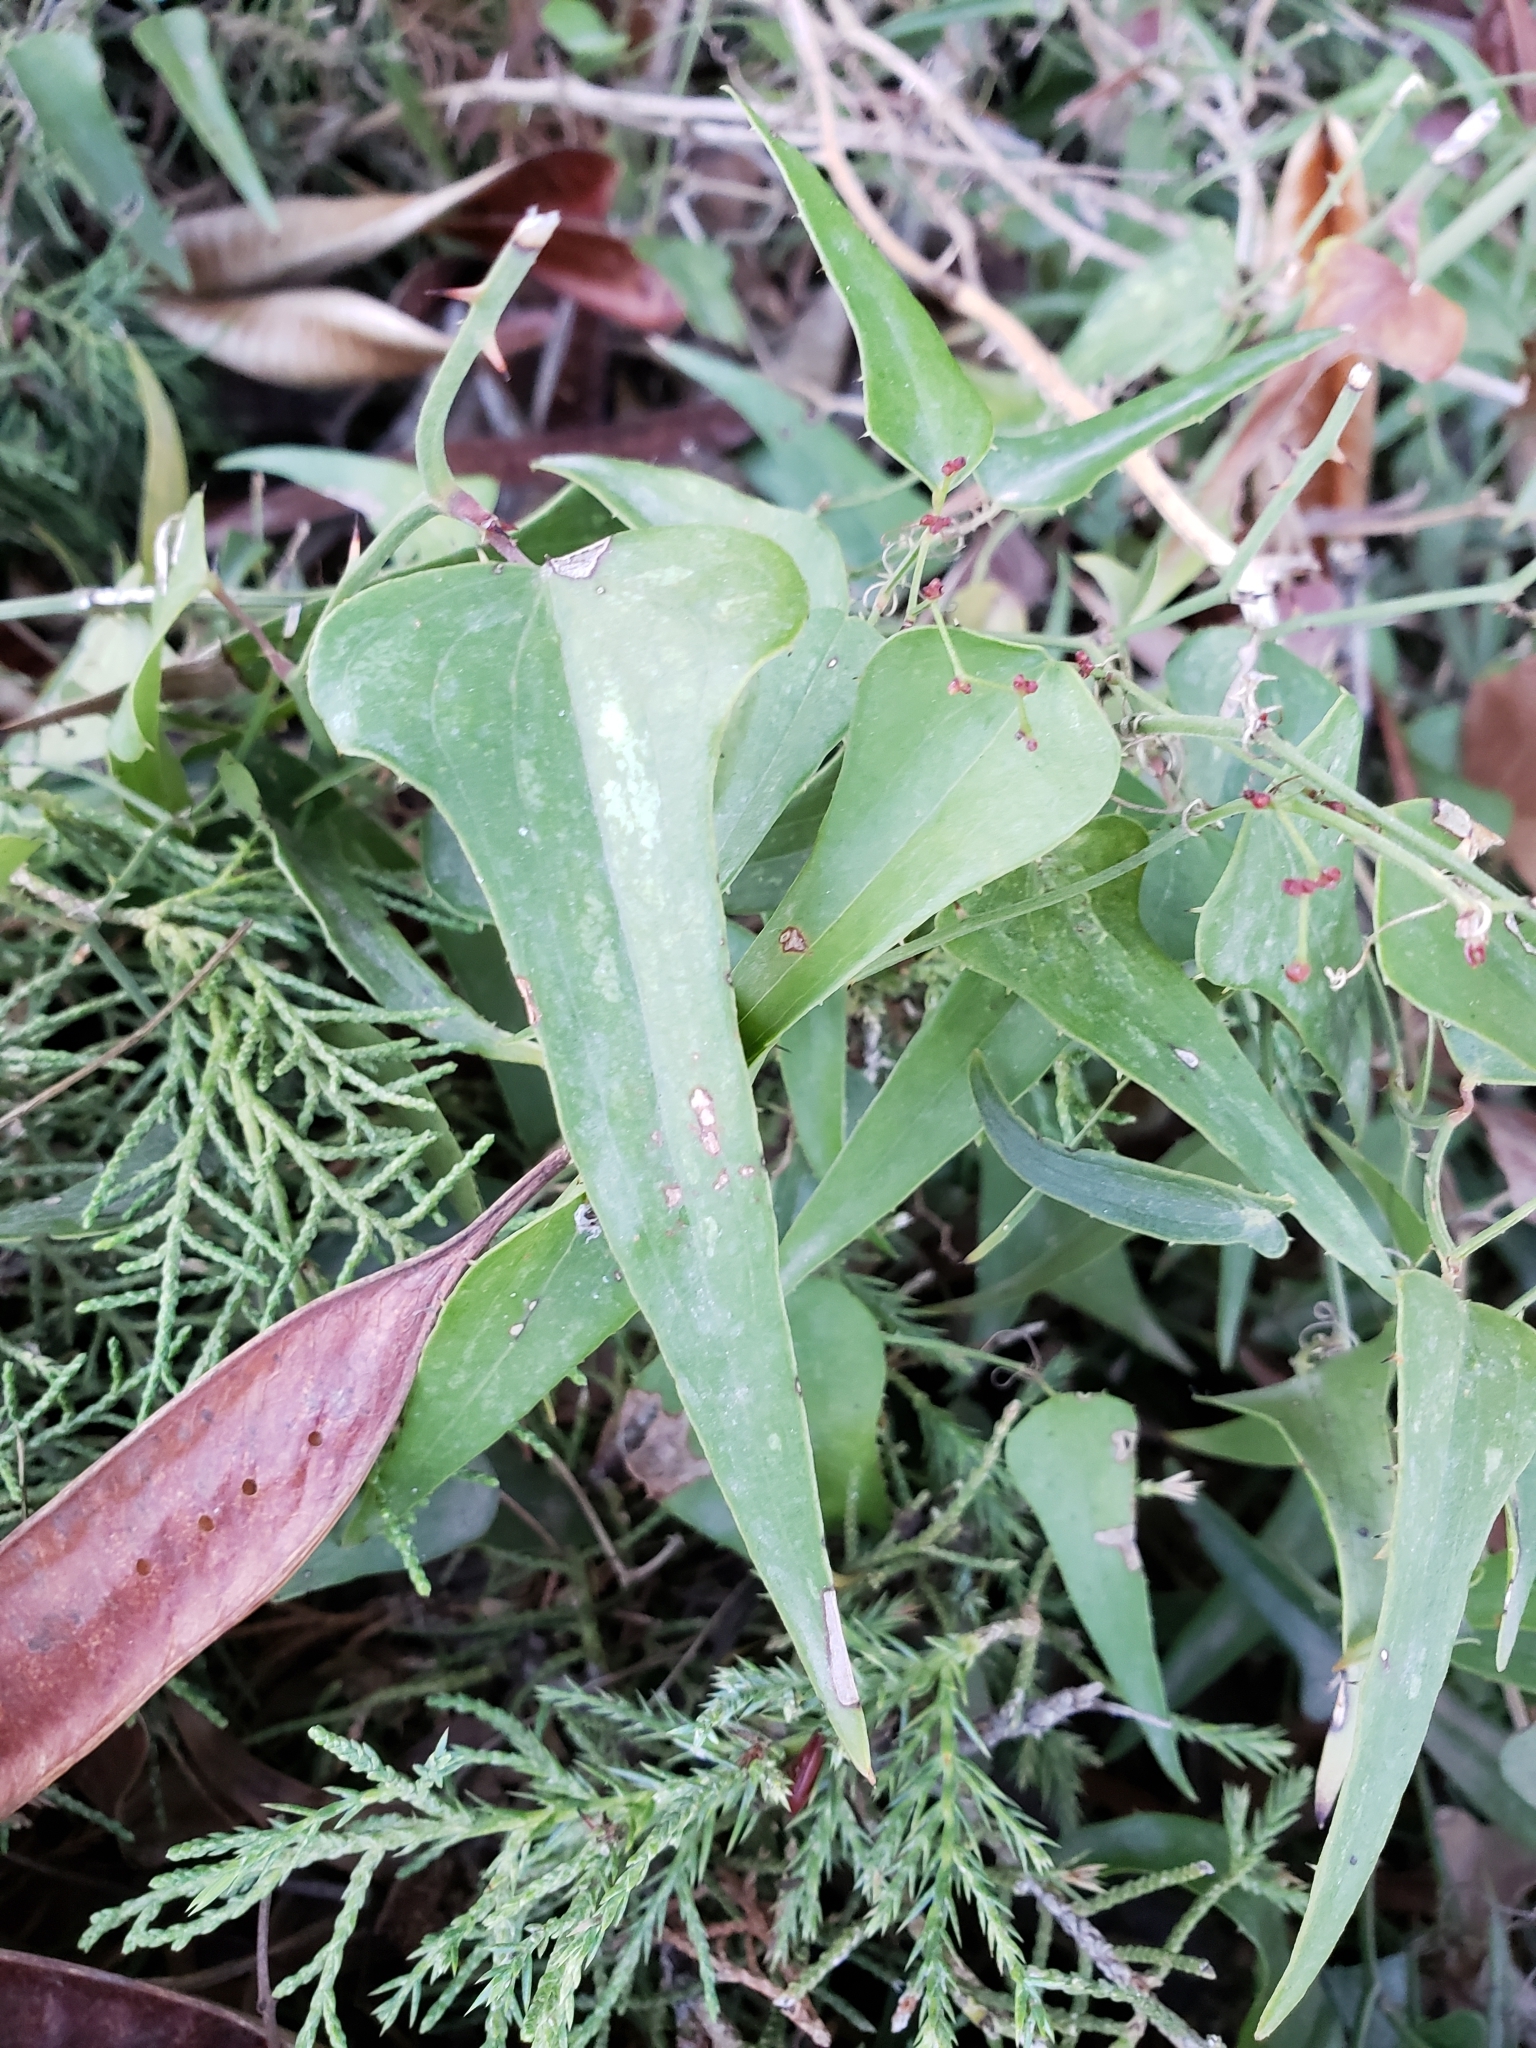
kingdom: Plantae
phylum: Tracheophyta
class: Liliopsida
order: Liliales
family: Smilacaceae
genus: Smilax
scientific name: Smilax aspera
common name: Common smilax
